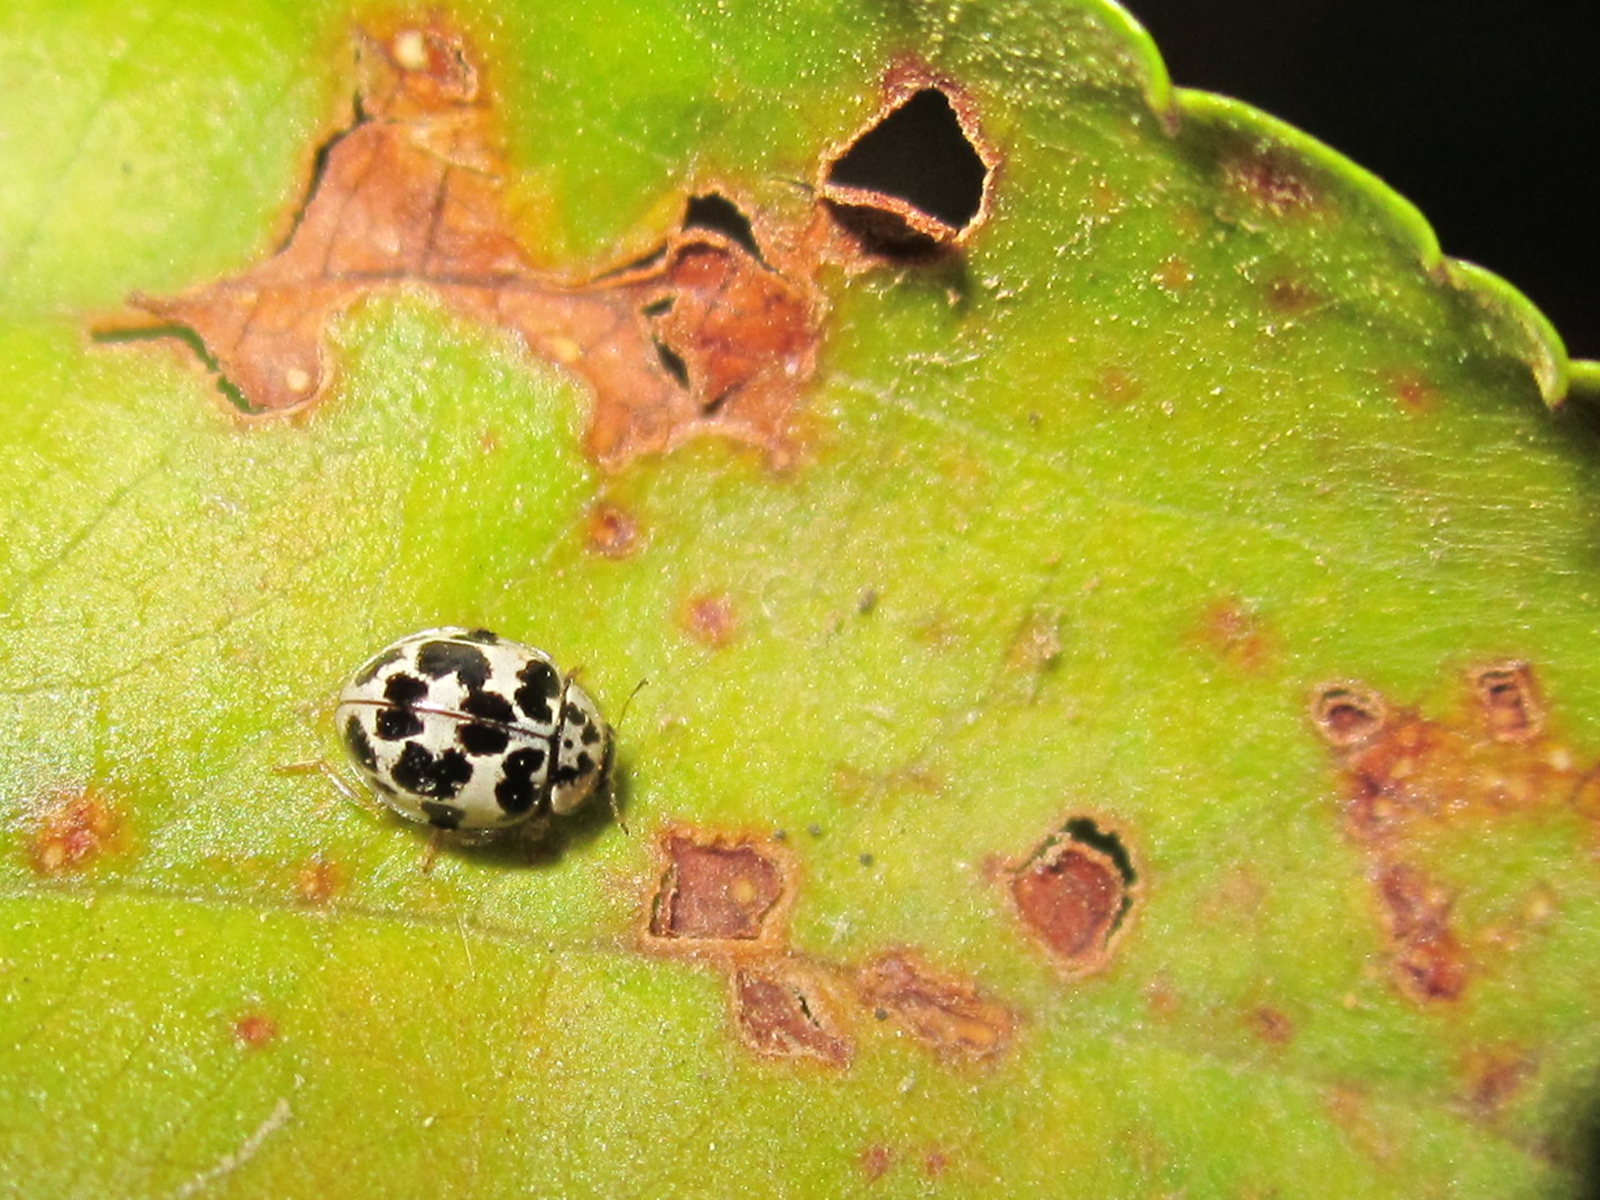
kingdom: Animalia
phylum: Arthropoda
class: Insecta
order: Coleoptera
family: Coccinellidae
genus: Psyllobora
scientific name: Psyllobora
